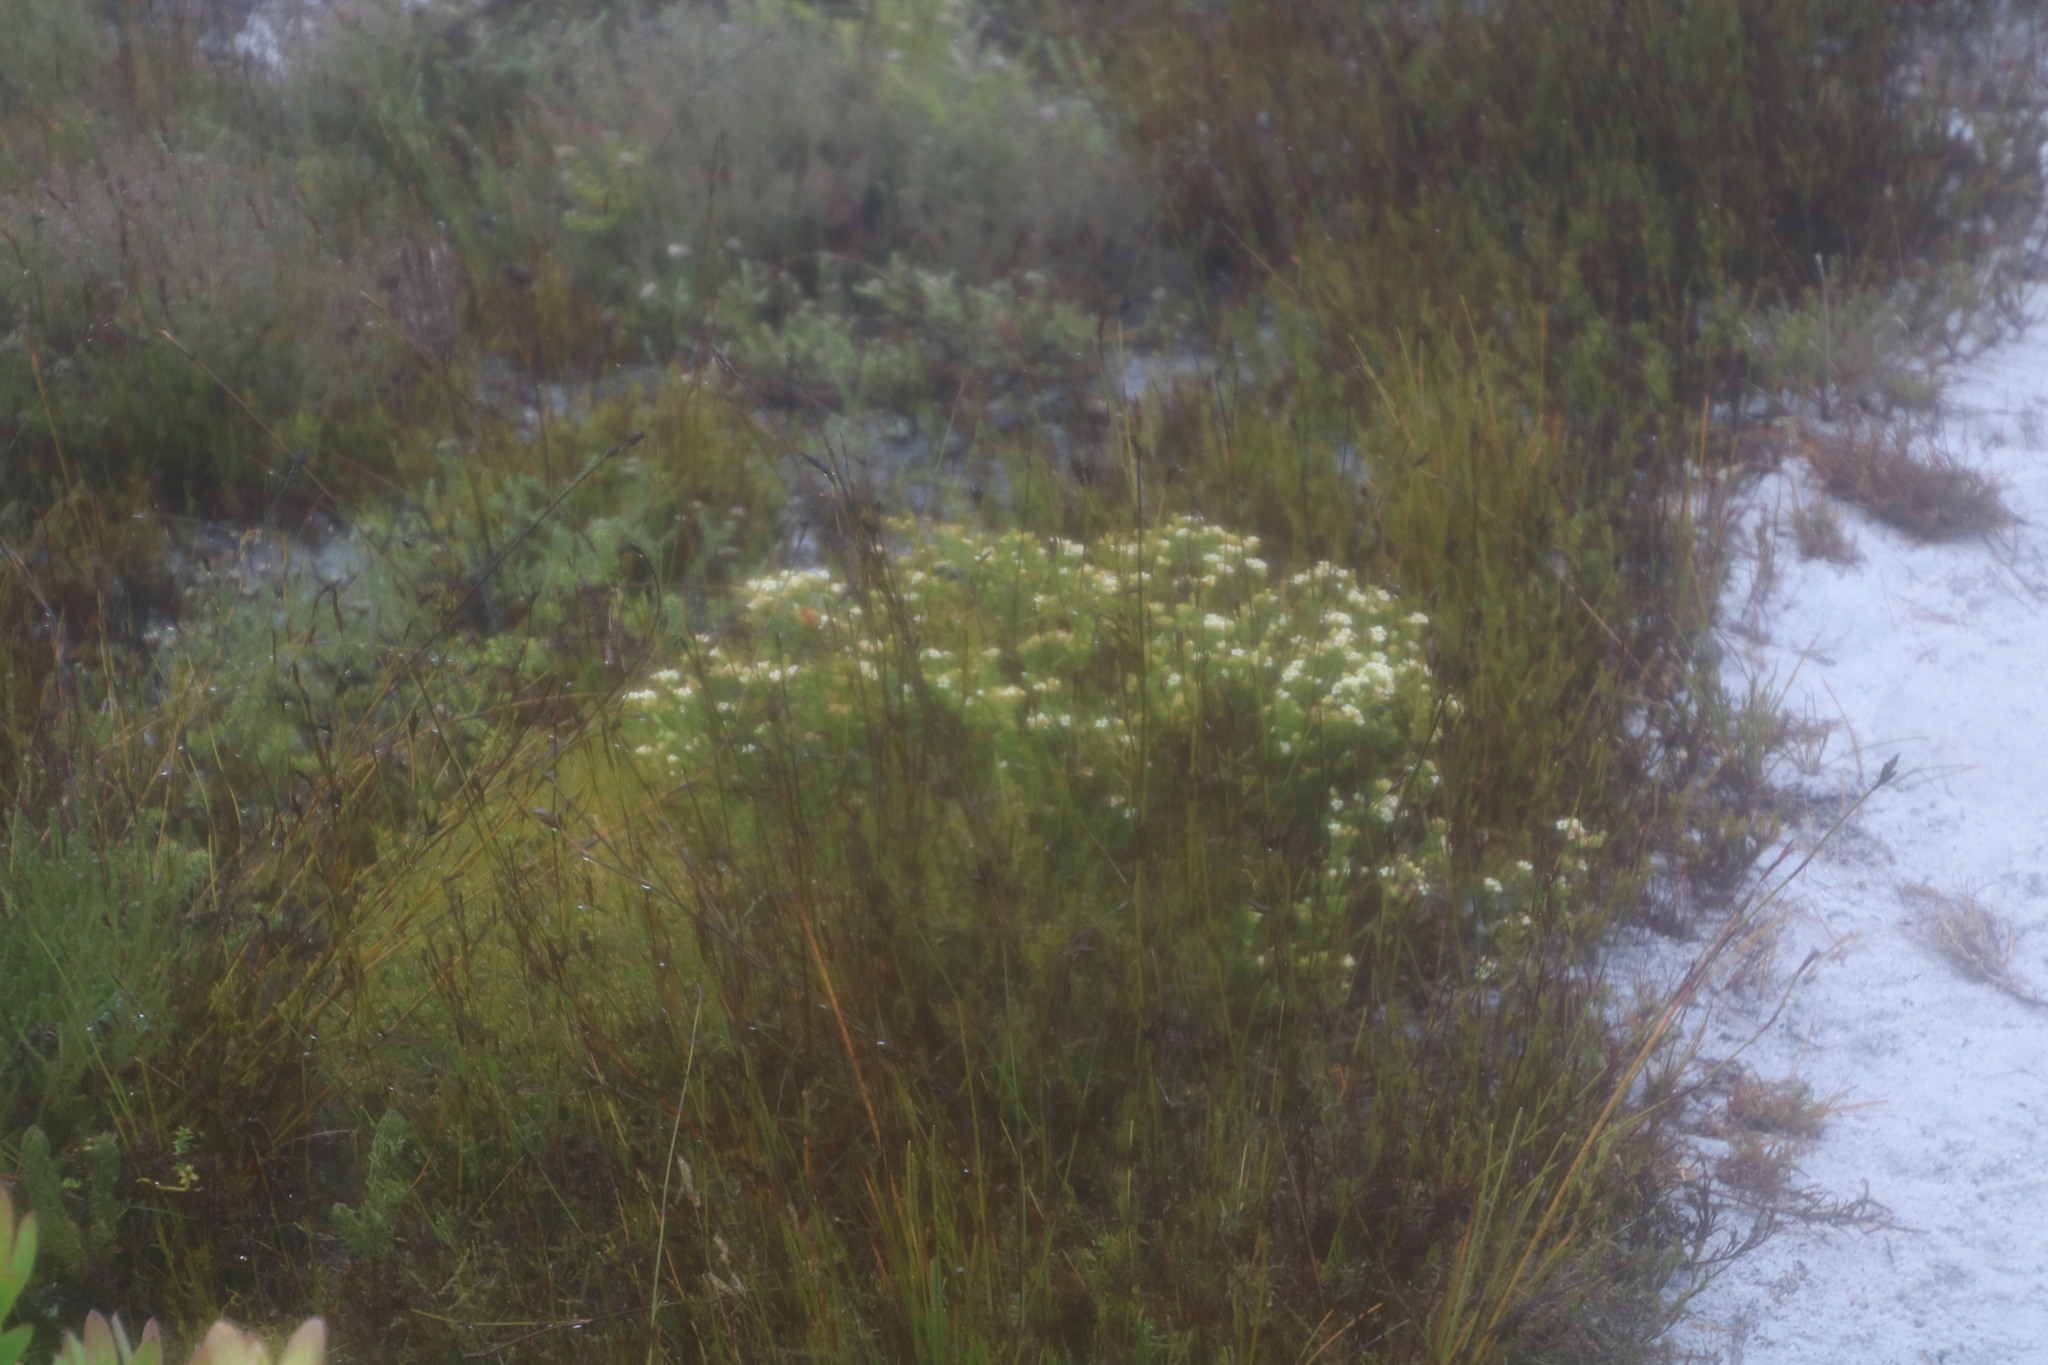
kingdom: Plantae
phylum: Tracheophyta
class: Magnoliopsida
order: Sapindales
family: Rutaceae
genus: Diosma
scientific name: Diosma oppositifolia
